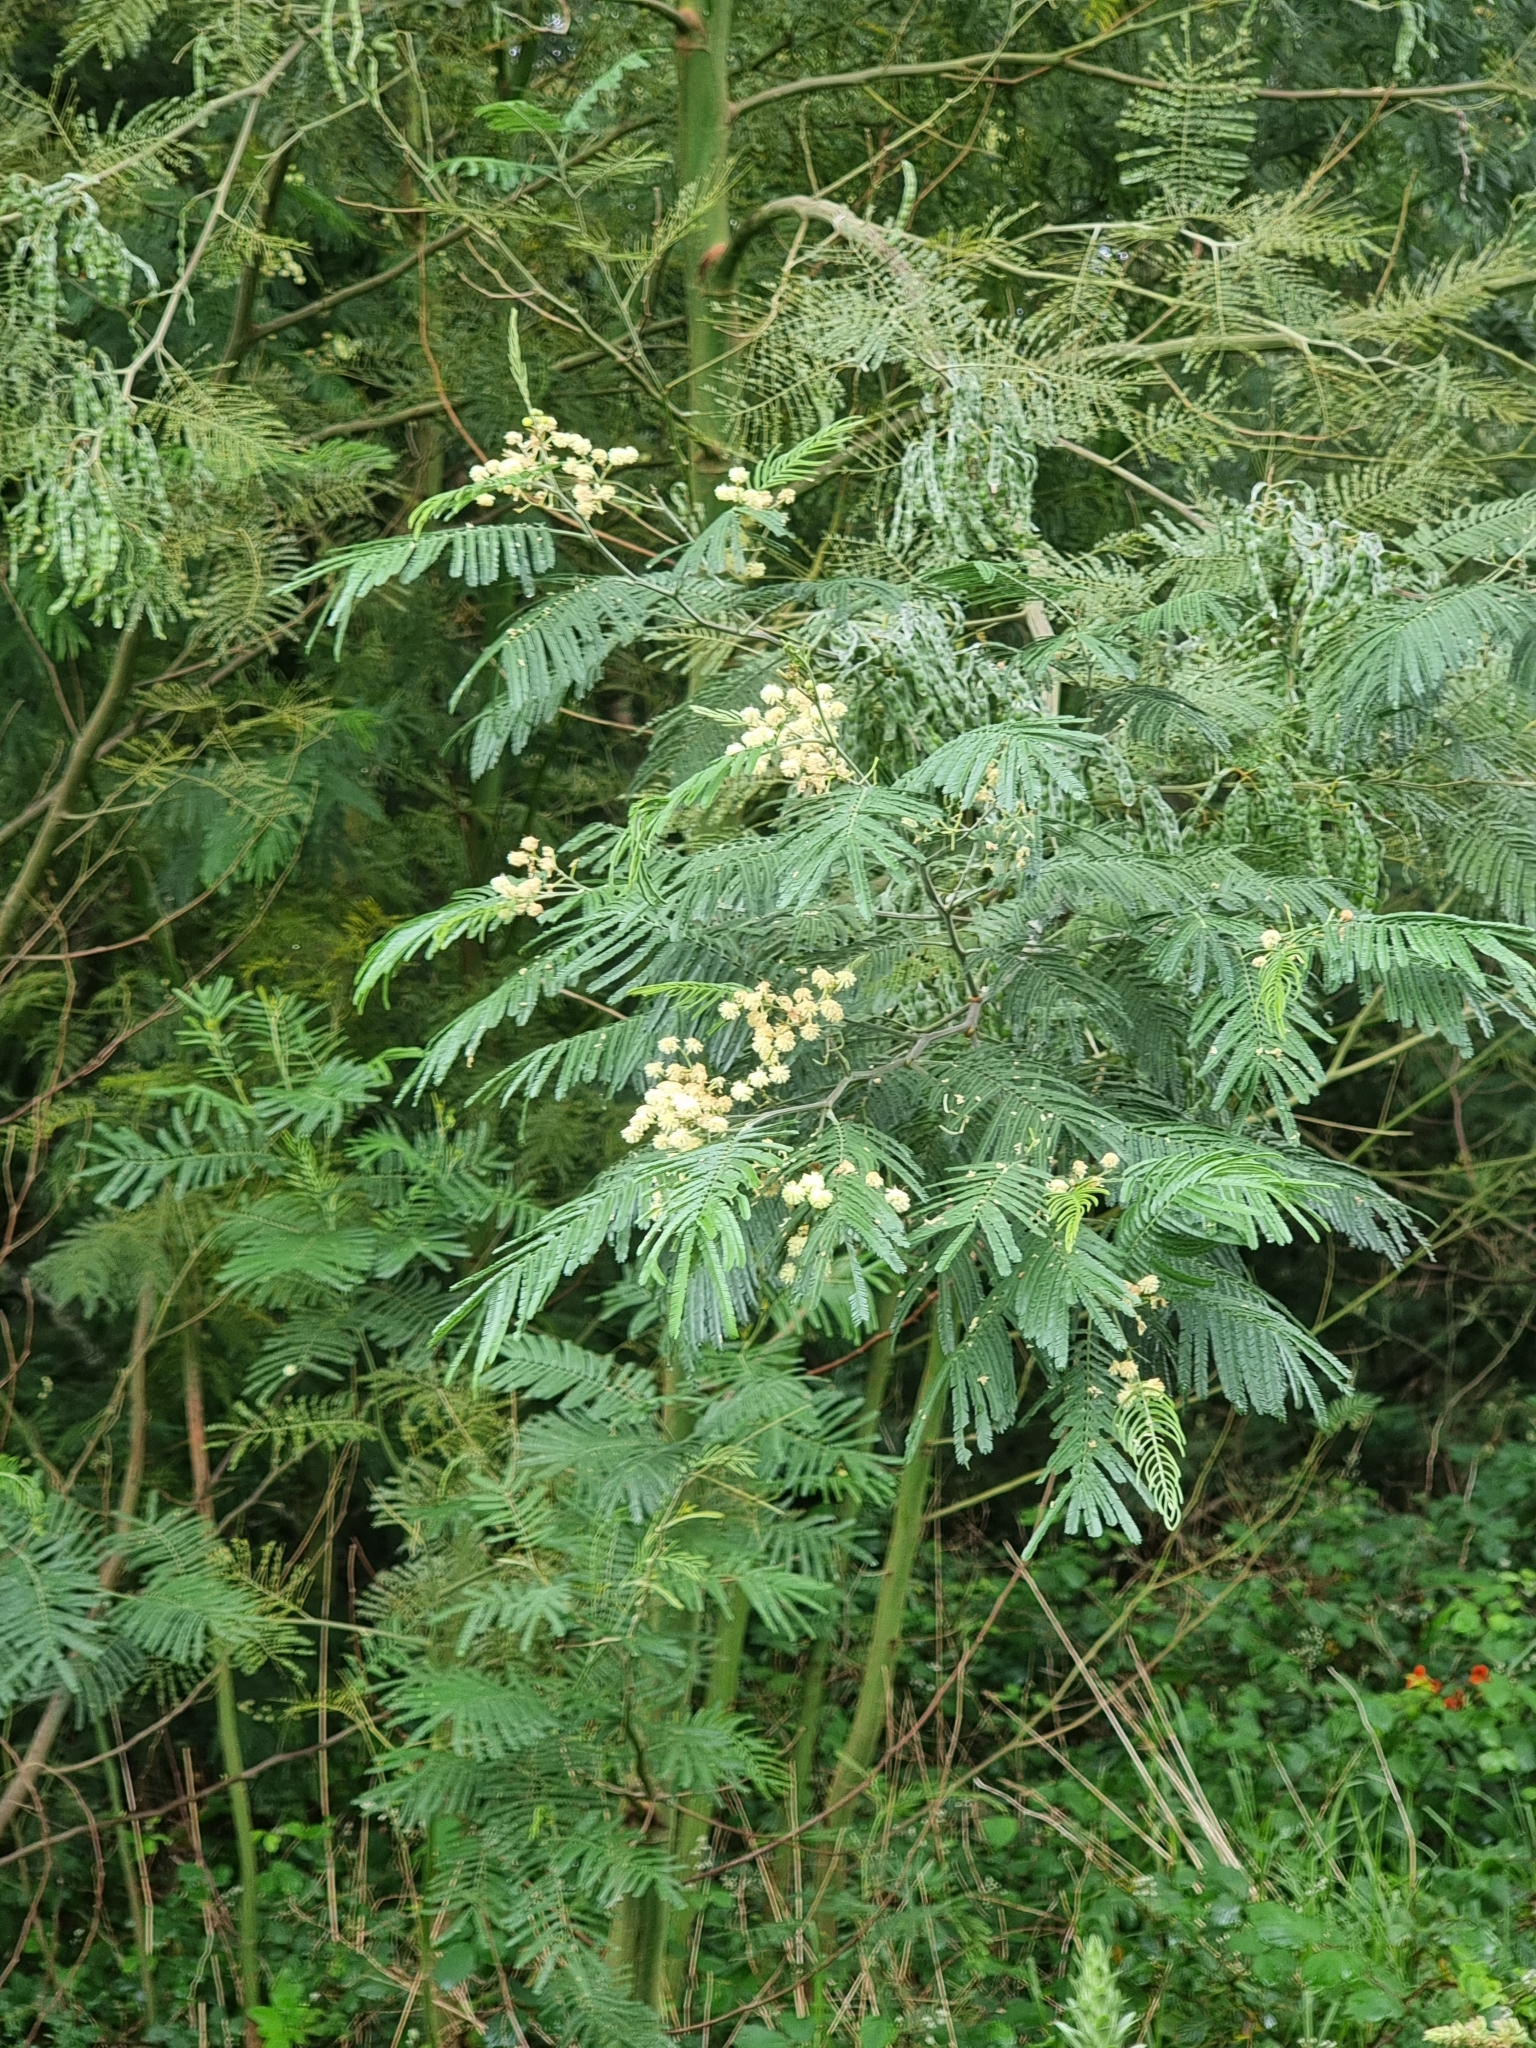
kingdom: Plantae
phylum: Tracheophyta
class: Magnoliopsida
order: Fabales
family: Fabaceae
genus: Acacia
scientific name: Acacia mearnsii
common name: Black wattle
